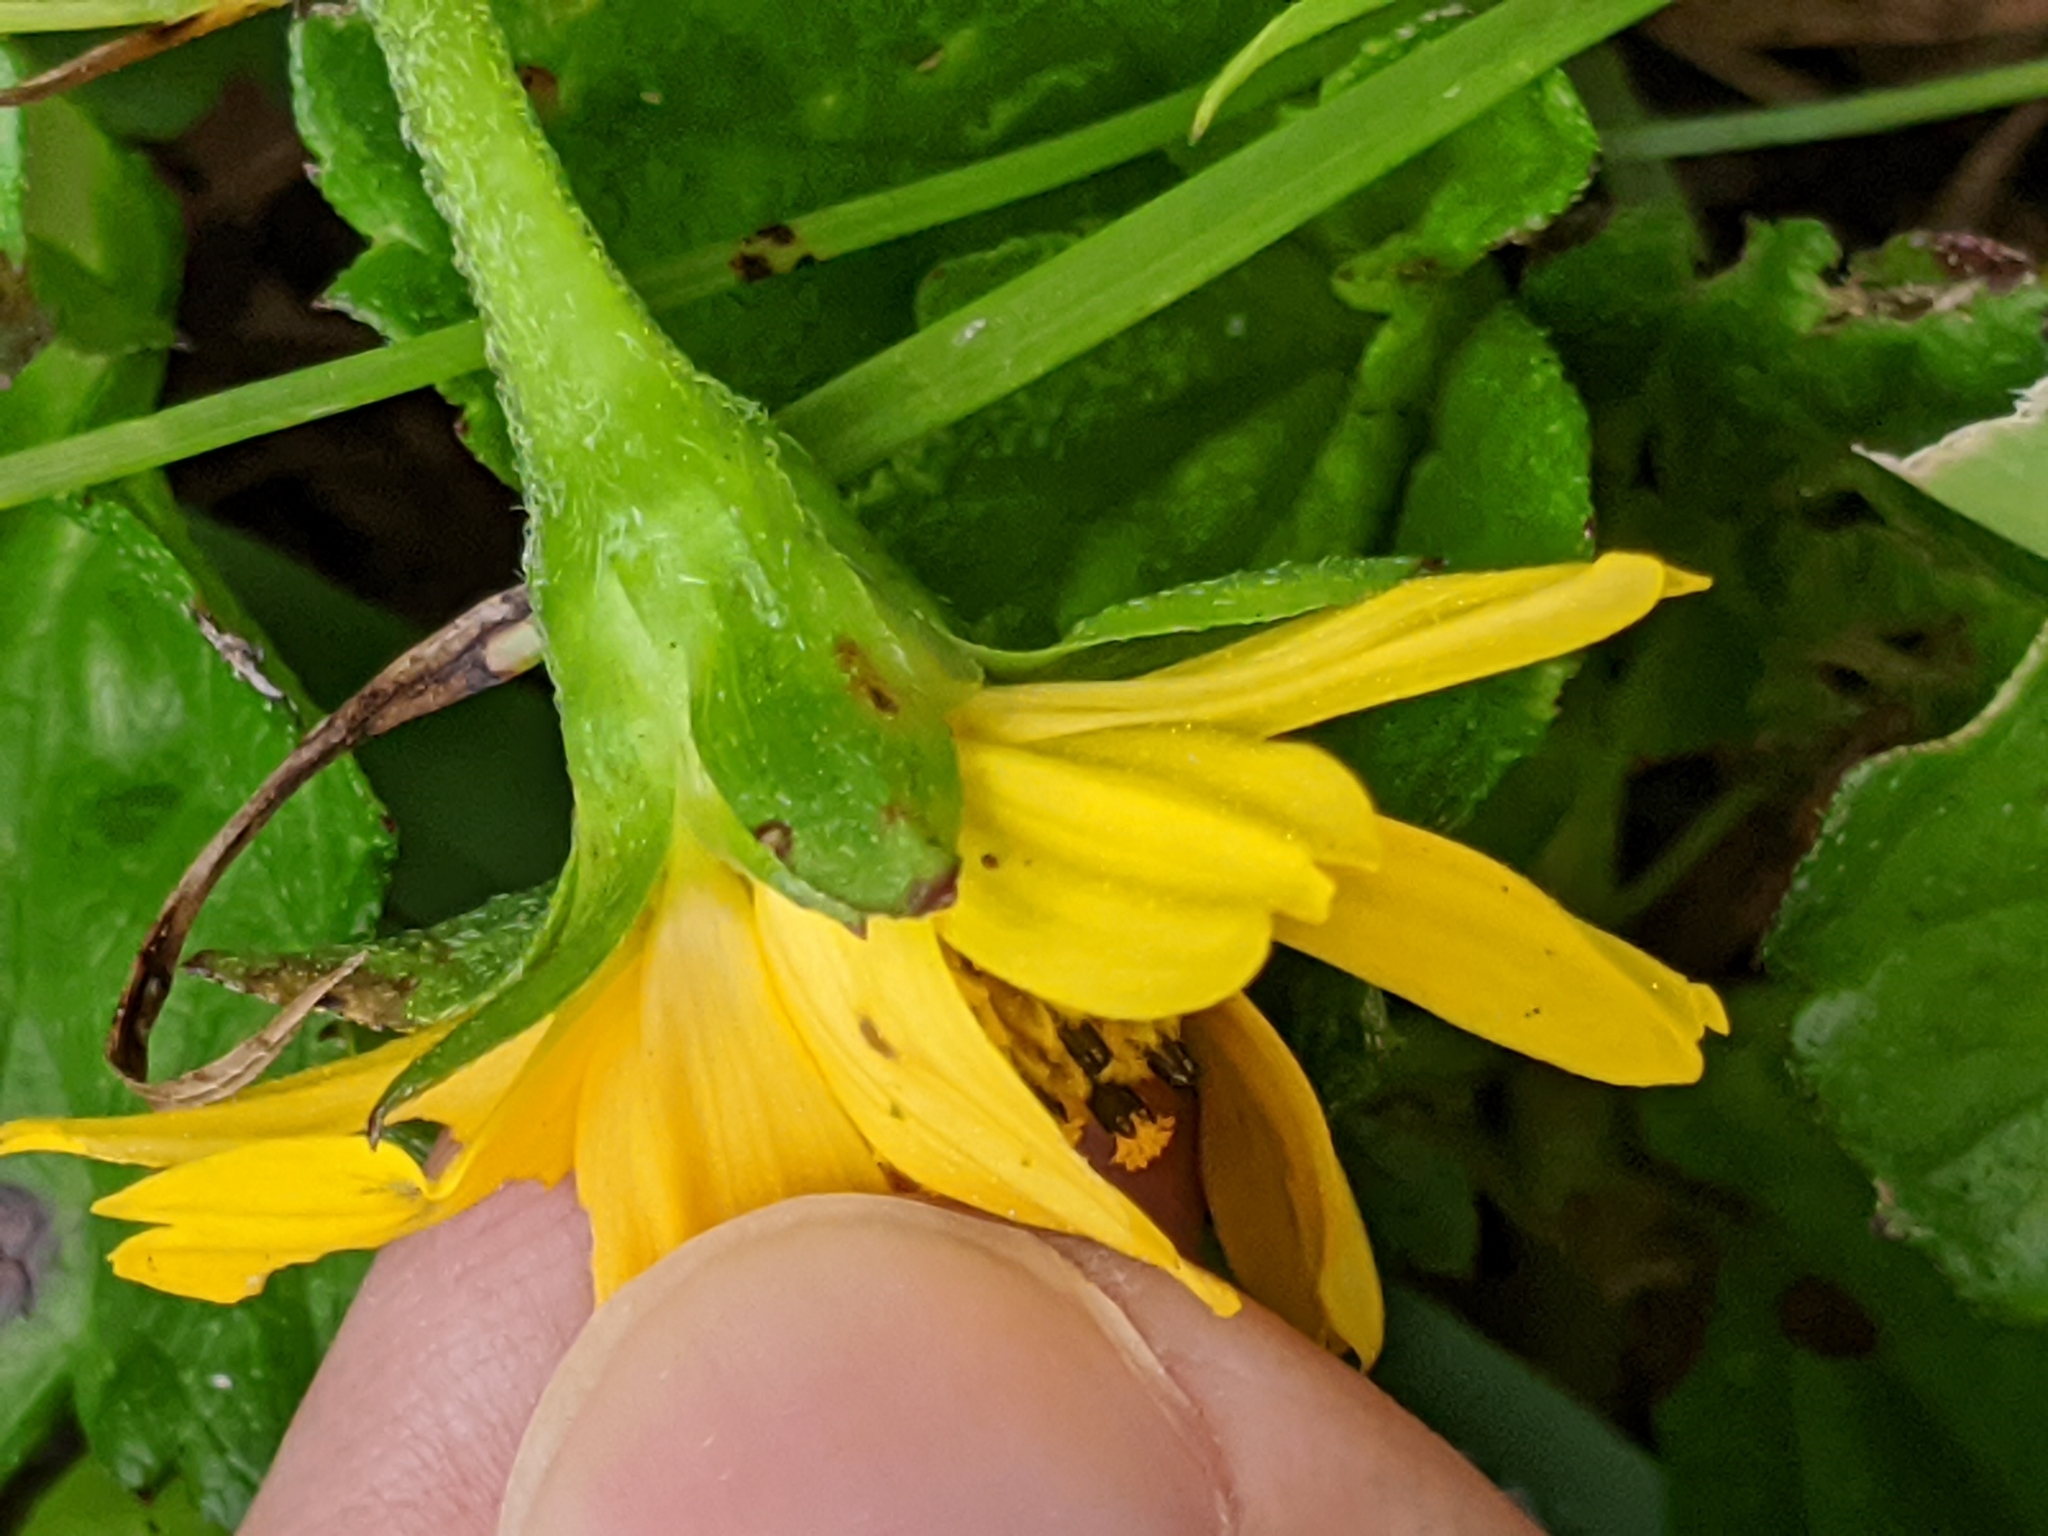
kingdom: Plantae
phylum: Tracheophyta
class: Magnoliopsida
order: Asterales
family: Asteraceae
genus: Sphagneticola
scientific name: Sphagneticola trilobata
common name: Bay biscayne creeping-oxeye
